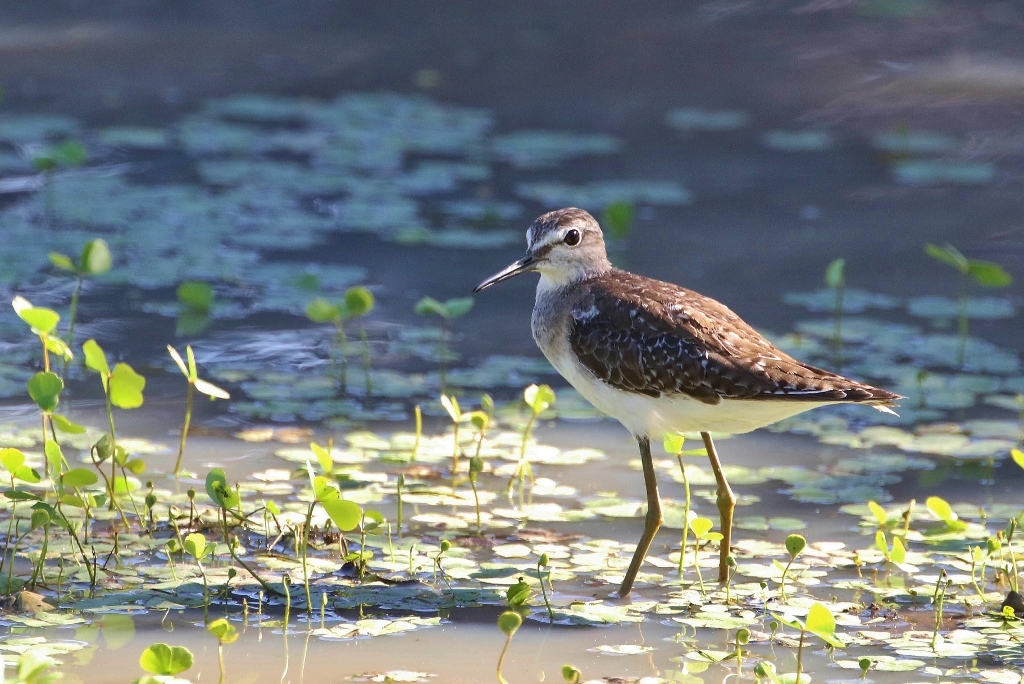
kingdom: Animalia
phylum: Chordata
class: Aves
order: Charadriiformes
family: Scolopacidae
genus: Tringa
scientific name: Tringa glareola
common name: Wood sandpiper
